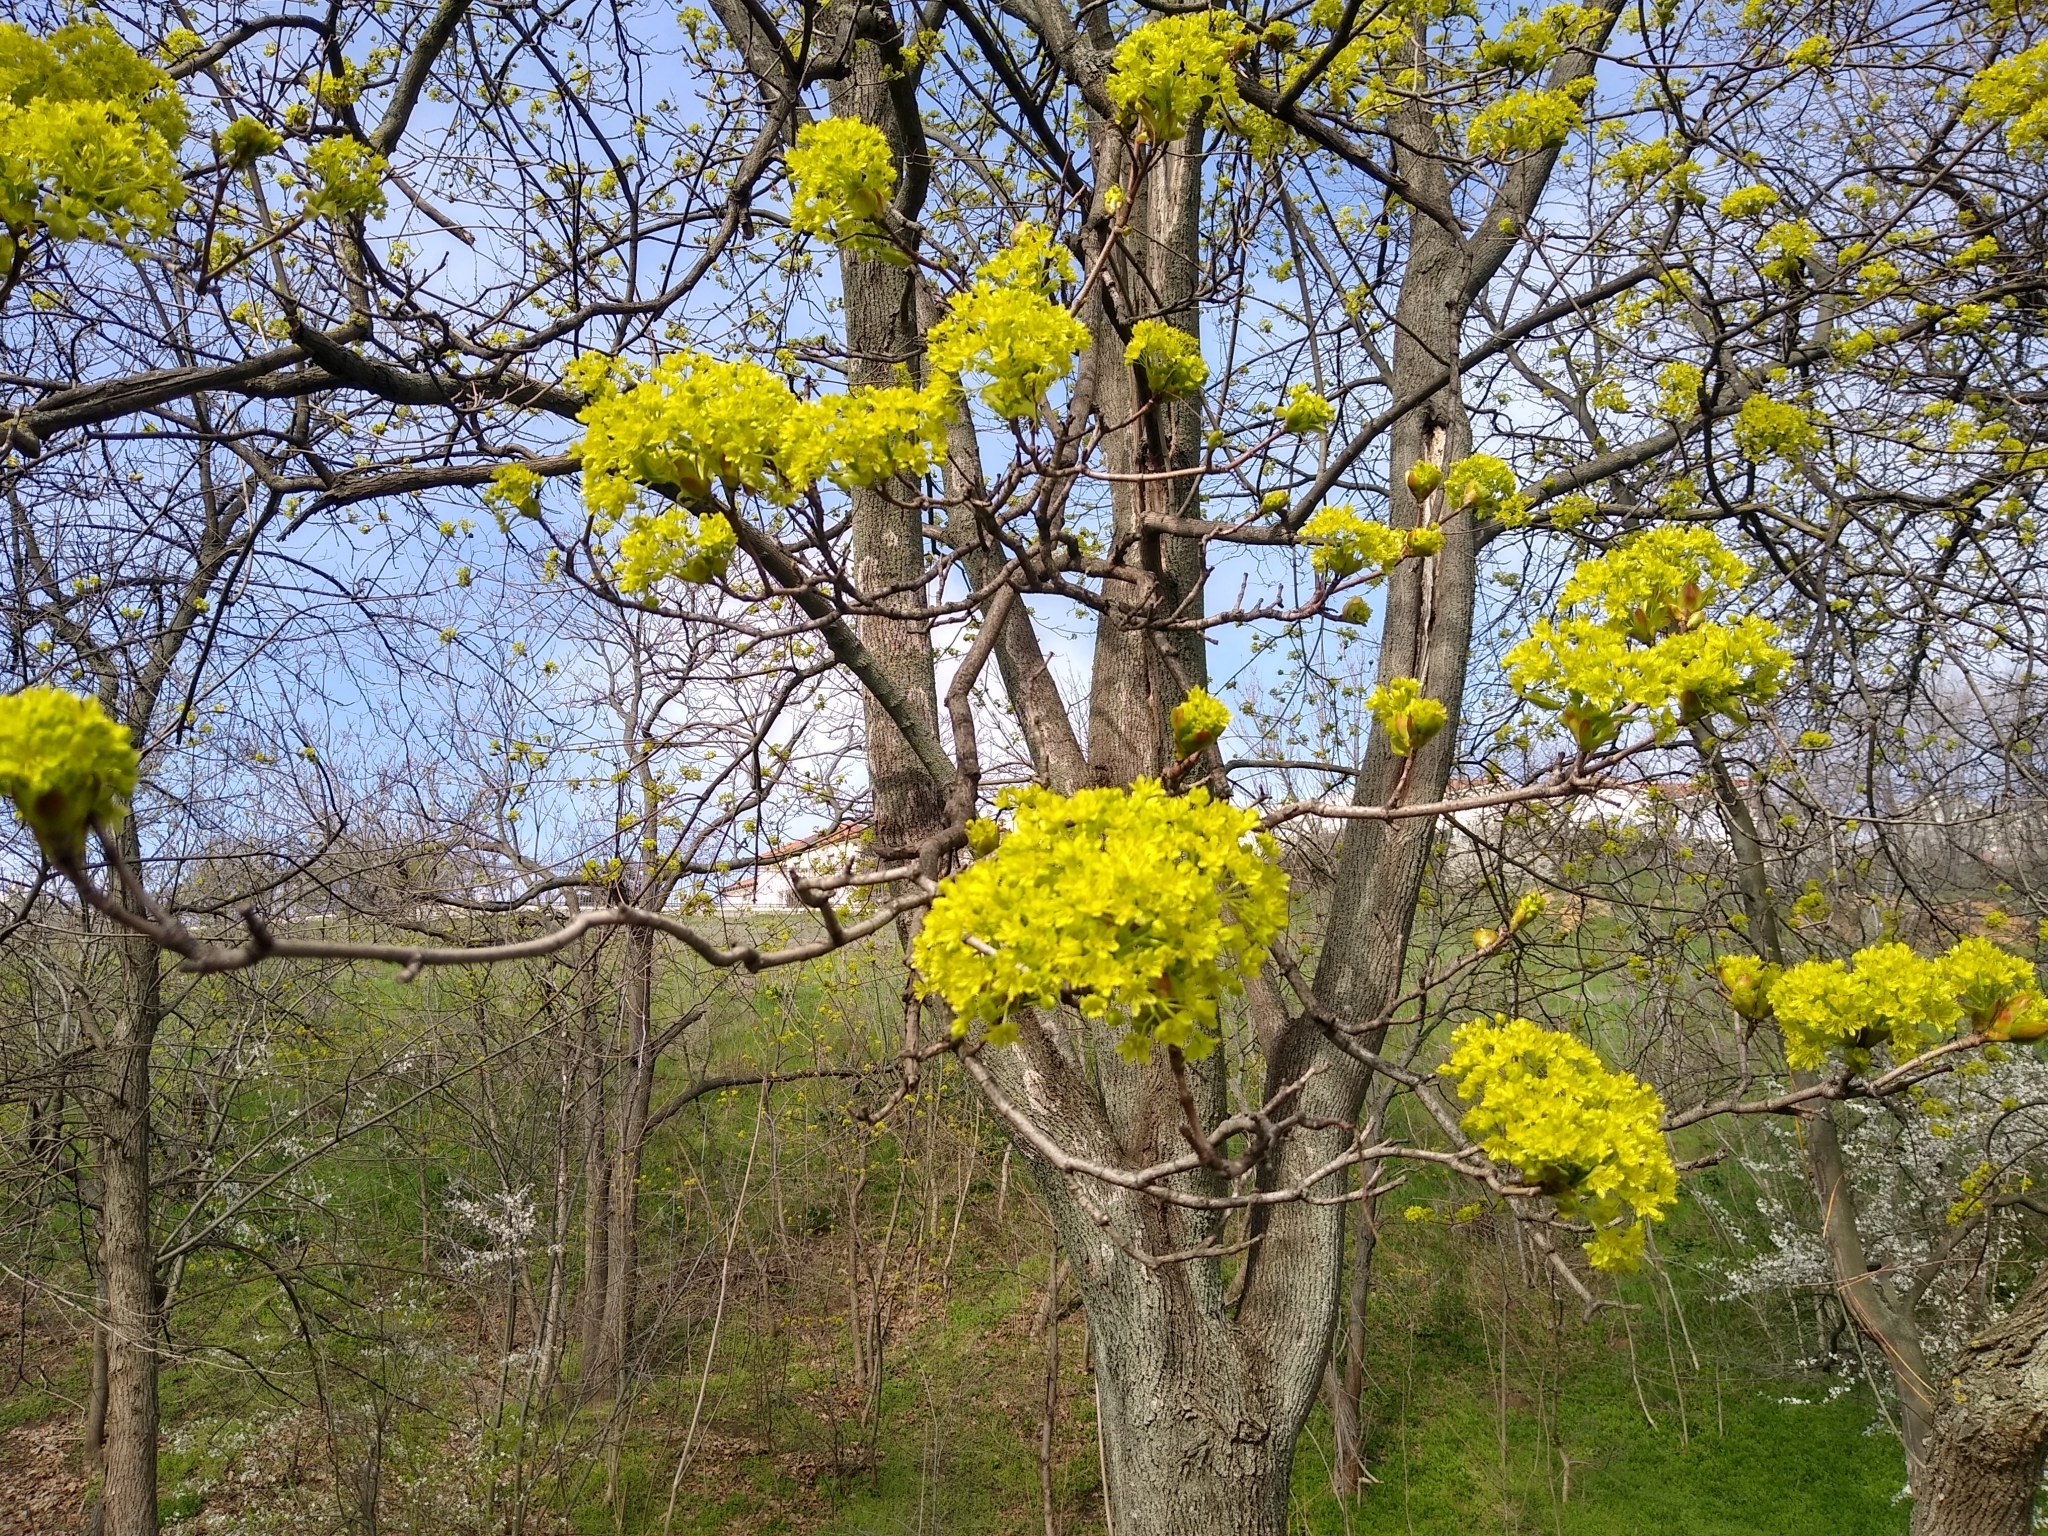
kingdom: Plantae
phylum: Tracheophyta
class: Magnoliopsida
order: Sapindales
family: Sapindaceae
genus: Acer
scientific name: Acer platanoides
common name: Norway maple
